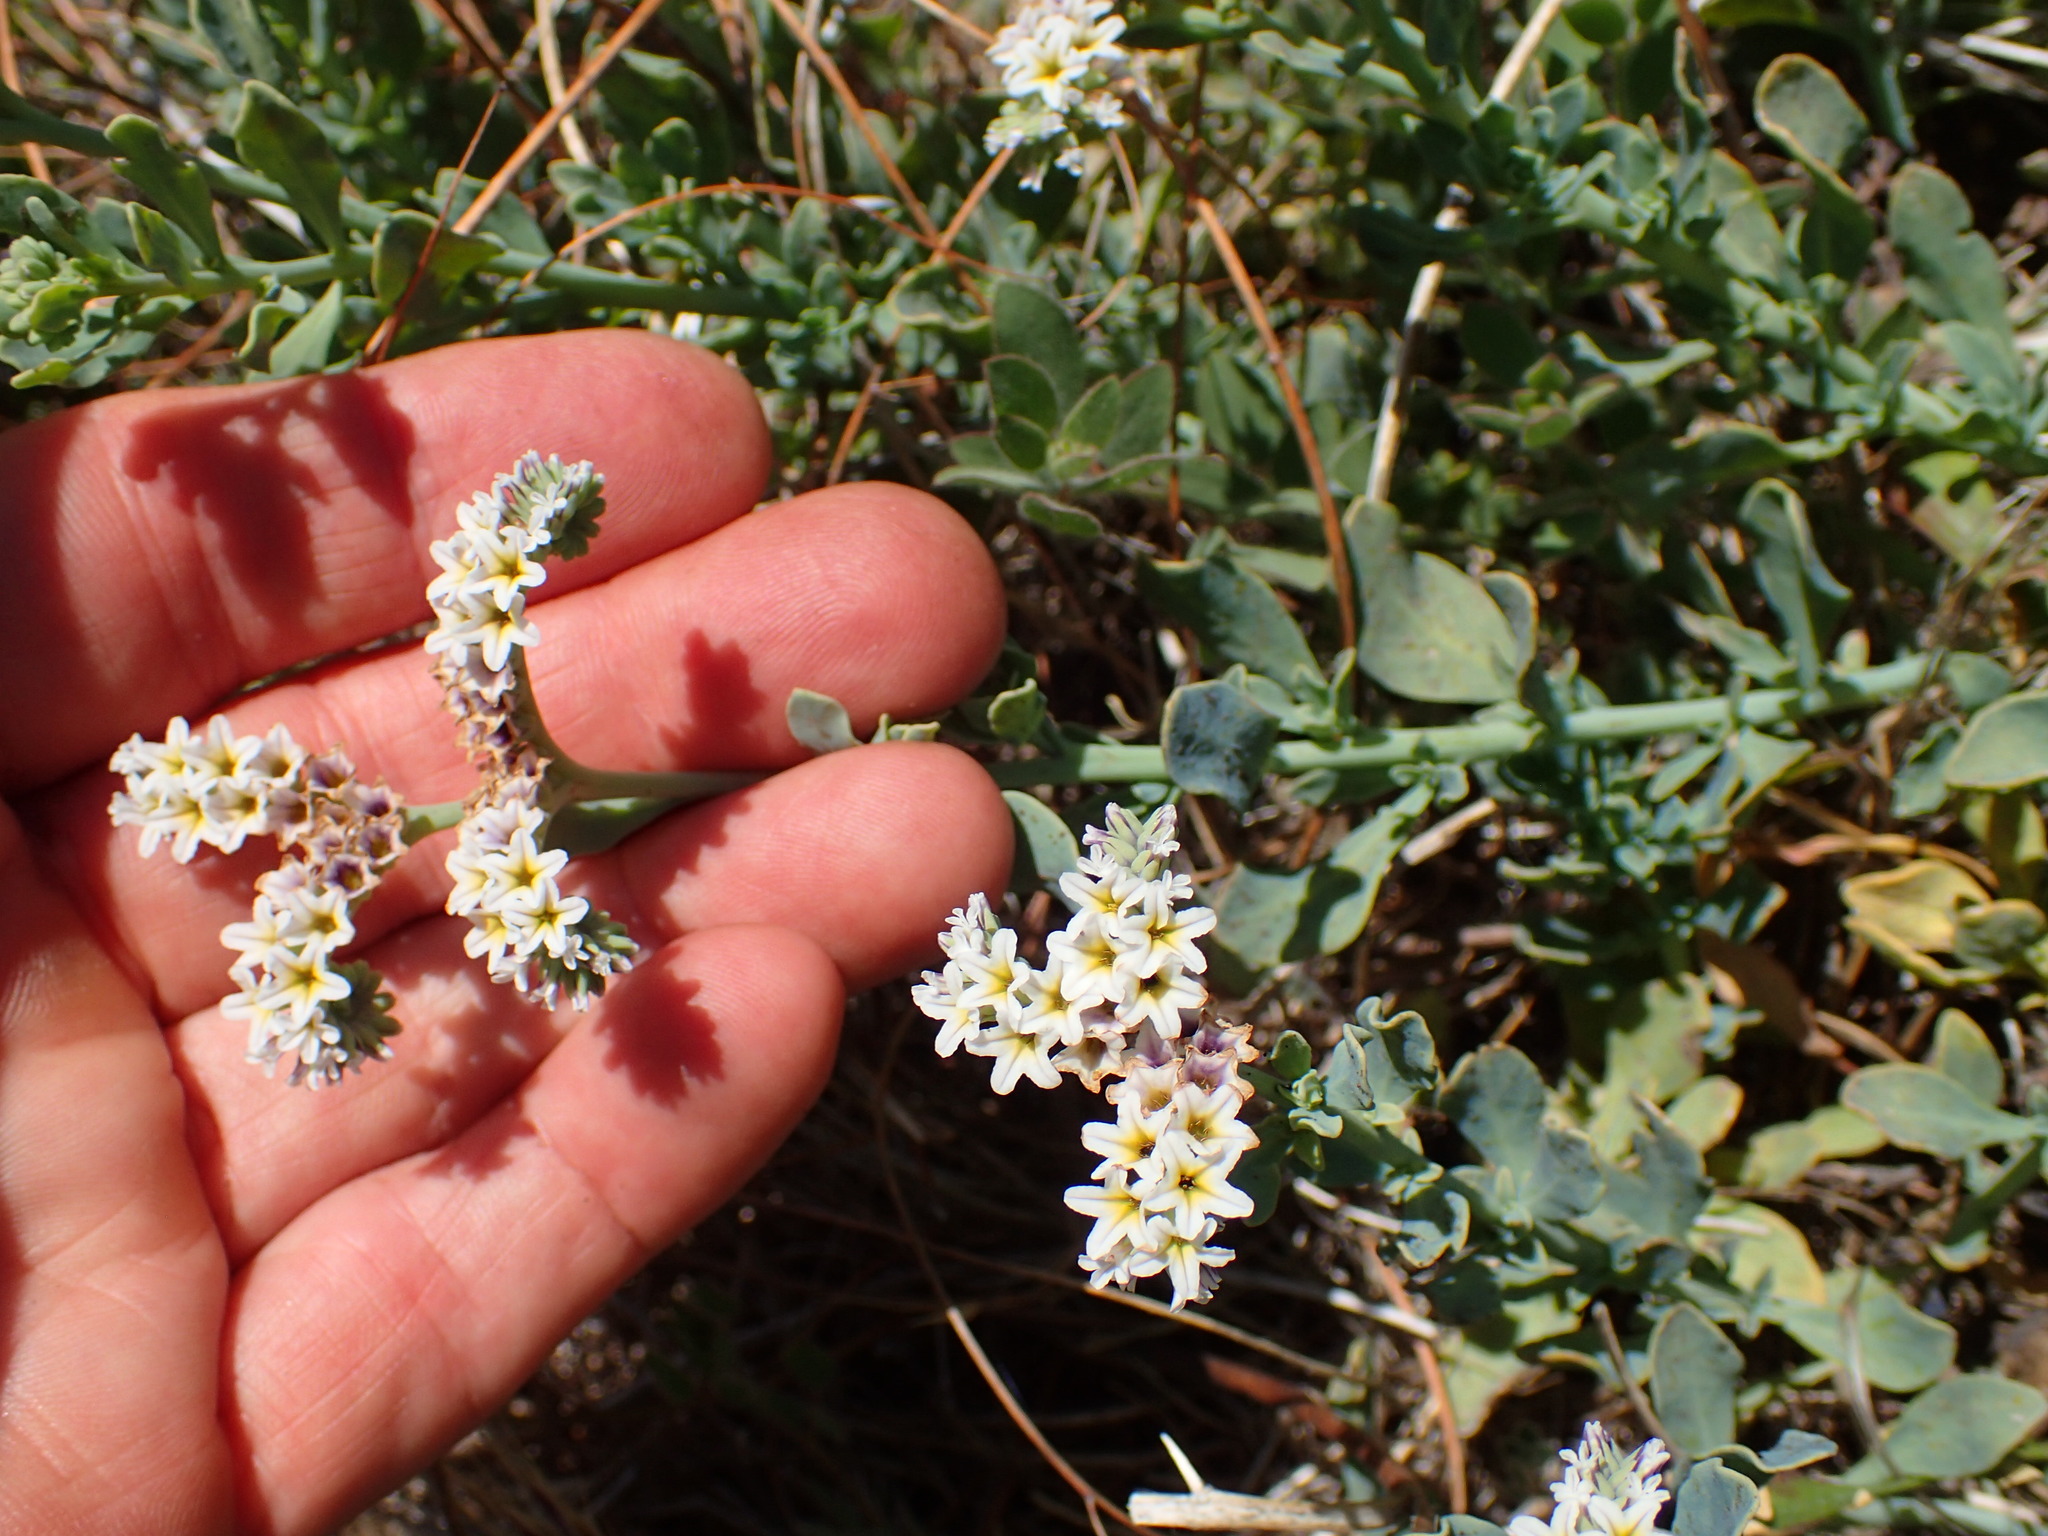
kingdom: Plantae
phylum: Tracheophyta
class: Magnoliopsida
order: Boraginales
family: Heliotropiaceae
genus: Heliotropium
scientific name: Heliotropium curassavicum
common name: Seaside heliotrope
